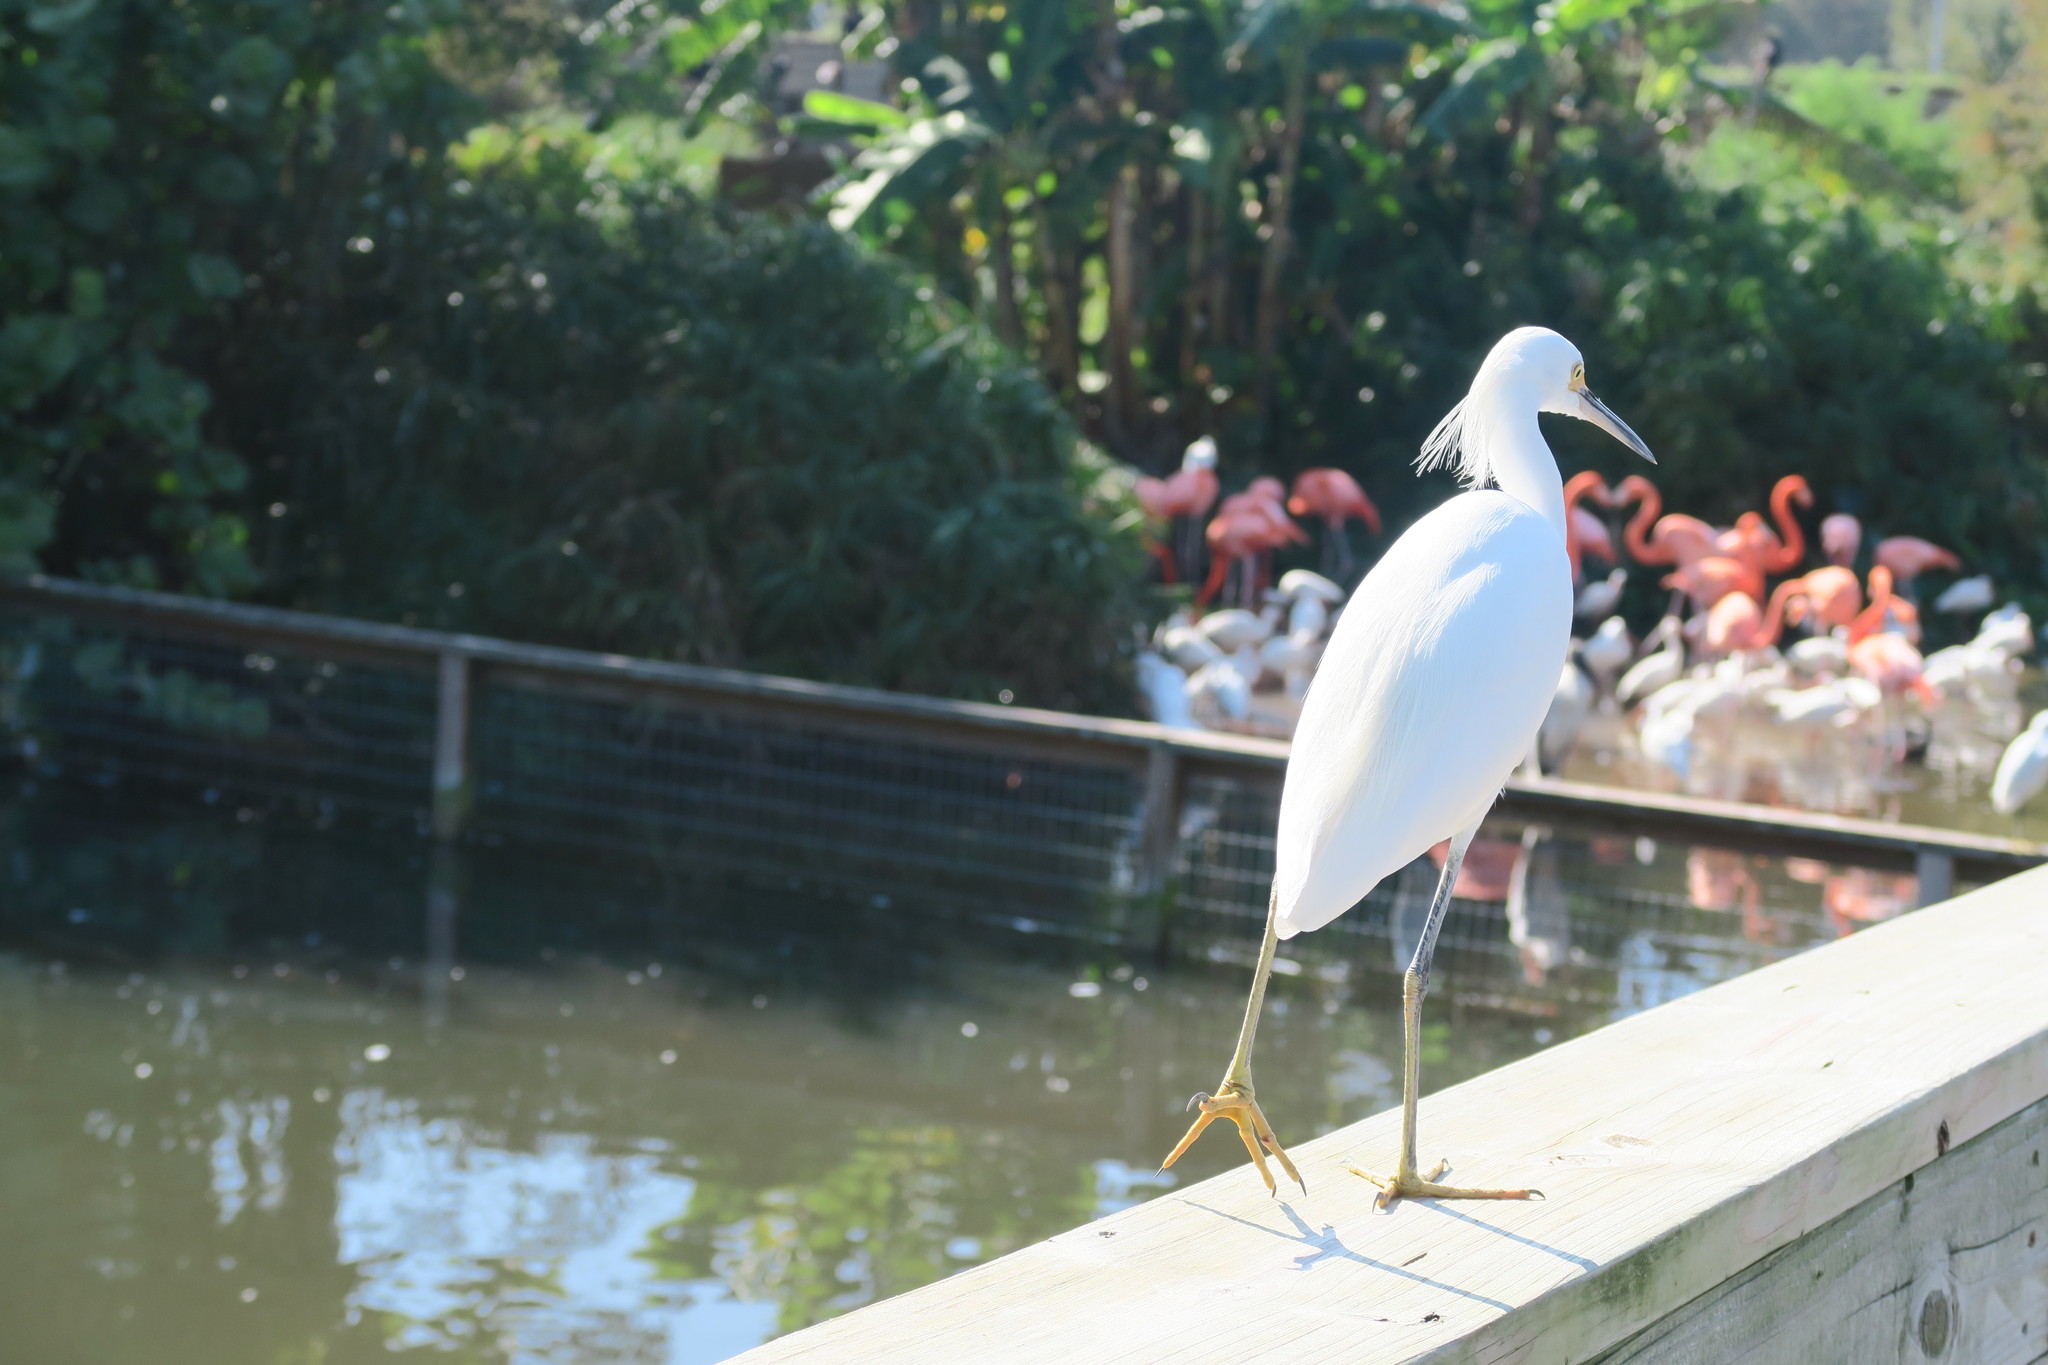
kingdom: Animalia
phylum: Chordata
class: Aves
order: Pelecaniformes
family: Ardeidae
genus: Egretta
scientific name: Egretta thula
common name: Snowy egret
